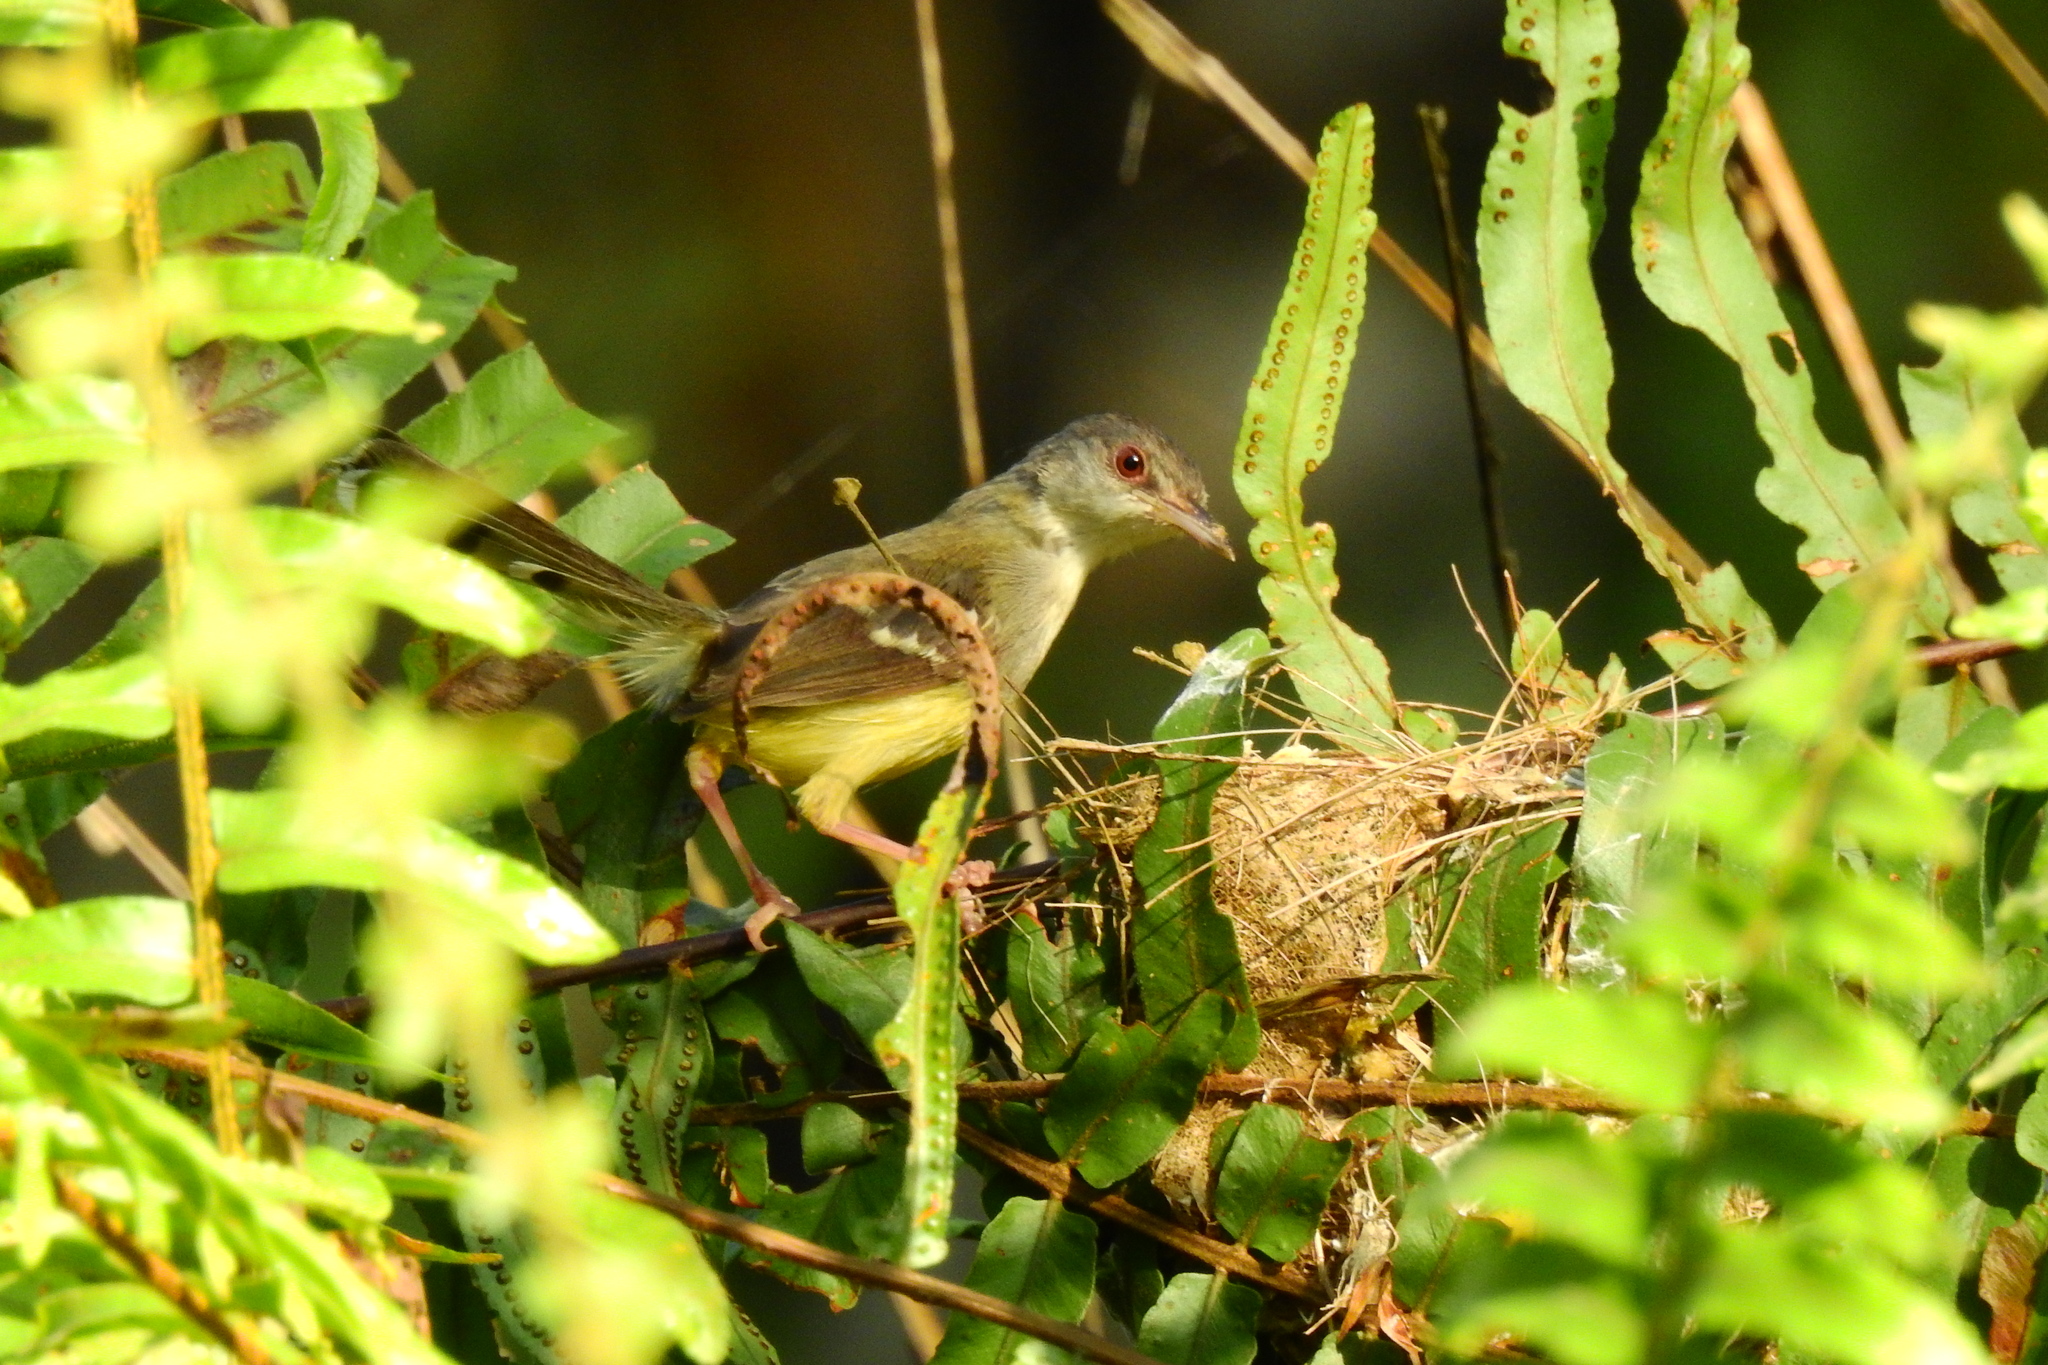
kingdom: Animalia
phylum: Chordata
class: Aves
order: Passeriformes
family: Cisticolidae
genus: Prinia
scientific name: Prinia familiaris
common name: Bar-winged prinia
